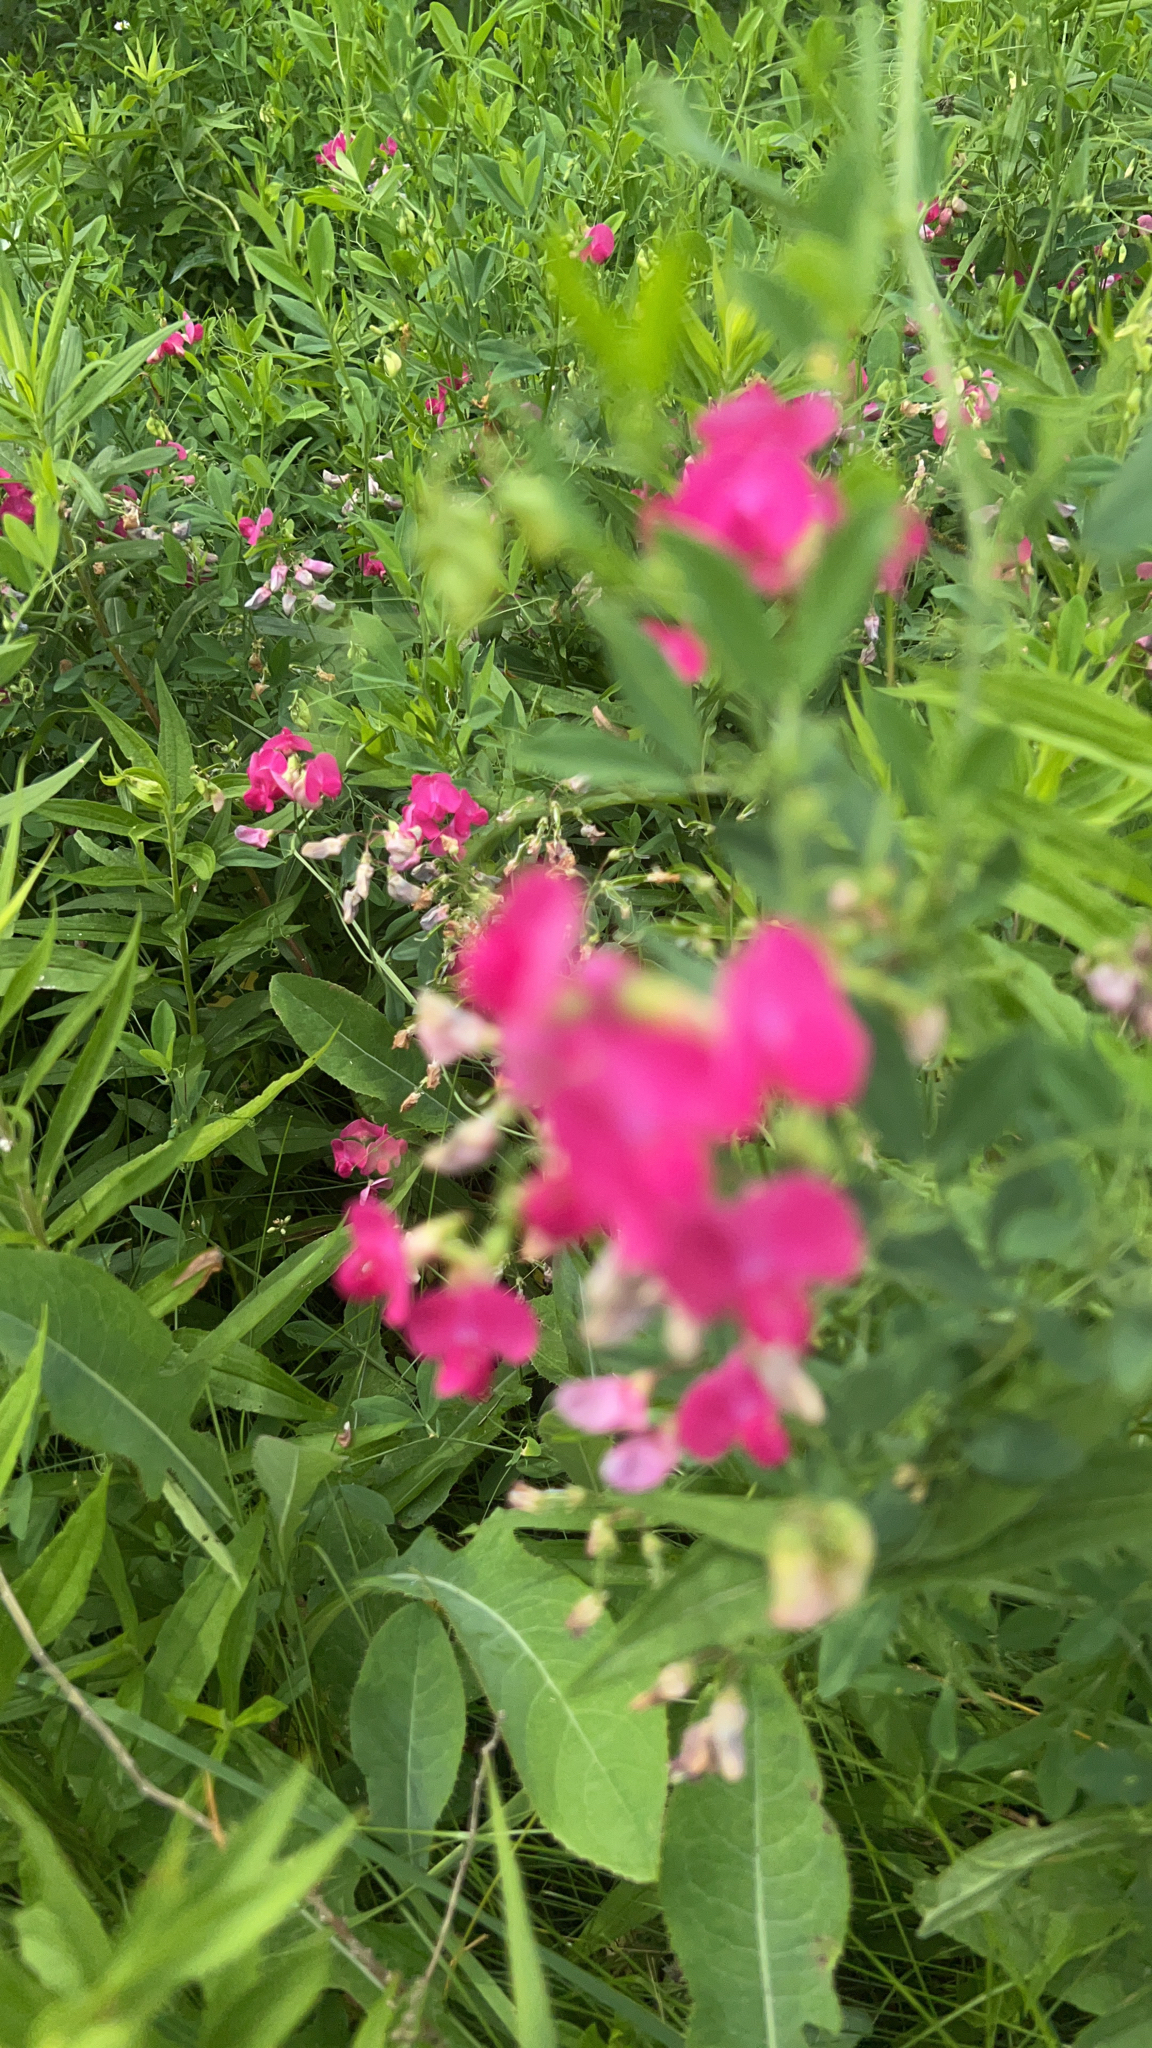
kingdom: Plantae
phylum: Tracheophyta
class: Magnoliopsida
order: Fabales
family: Fabaceae
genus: Lathyrus
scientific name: Lathyrus tuberosus
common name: Tuberous pea
